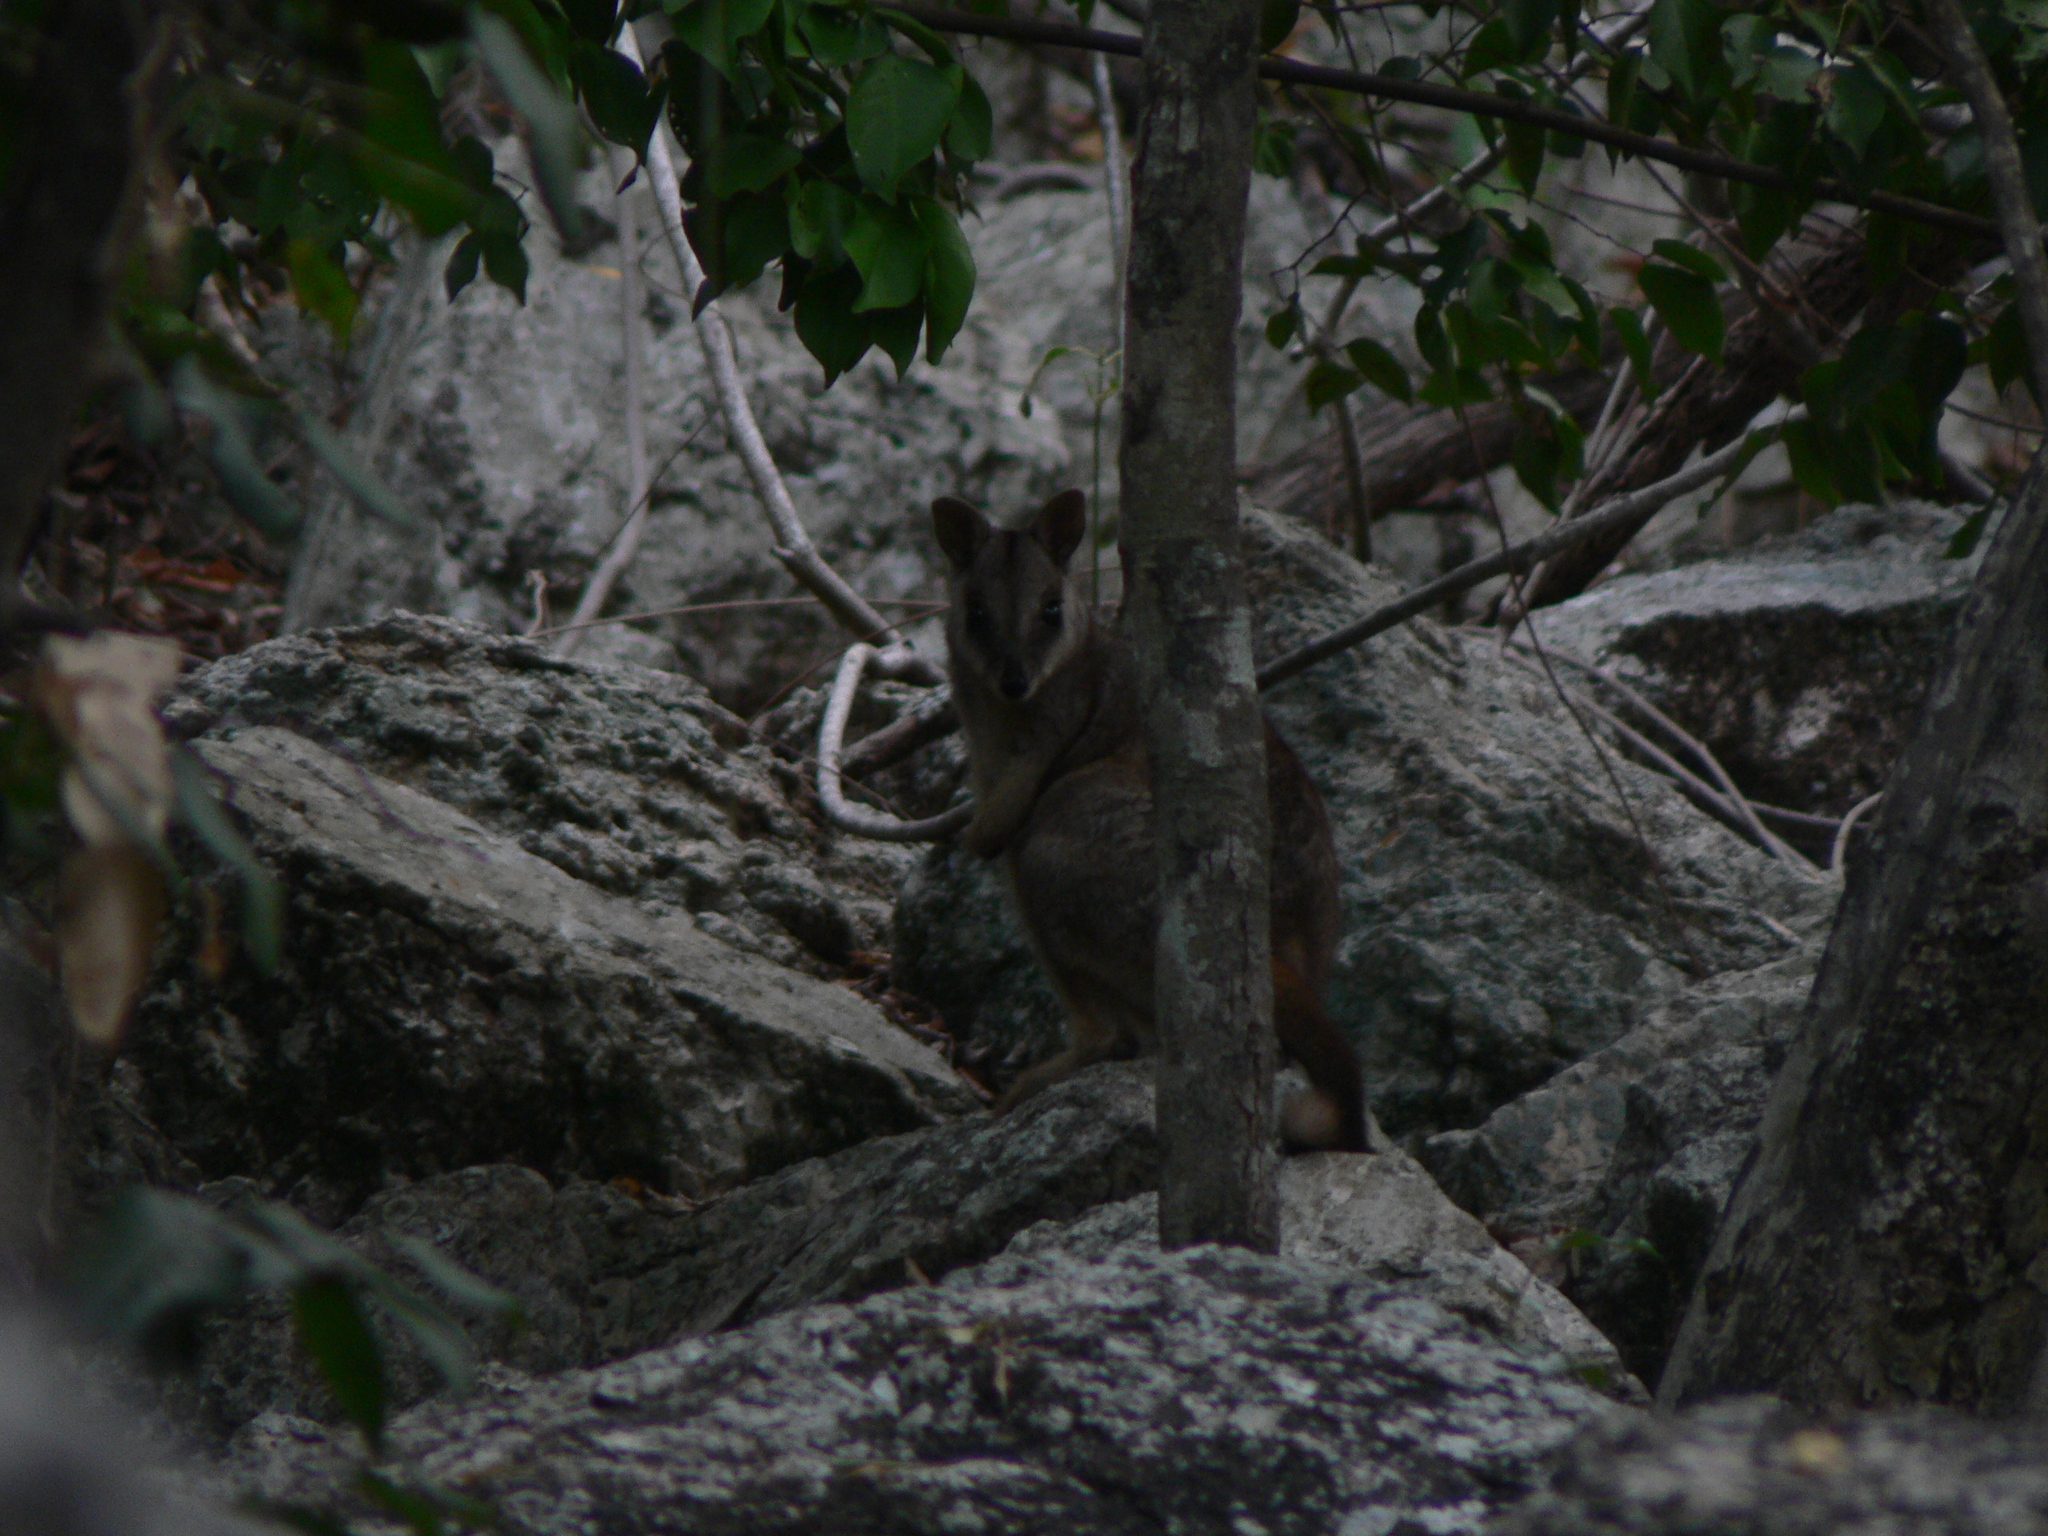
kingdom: Animalia
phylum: Chordata
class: Mammalia
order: Diprotodontia
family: Macropodidae
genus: Petrogale
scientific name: Petrogale assimilis
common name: Allied rock wallaby
